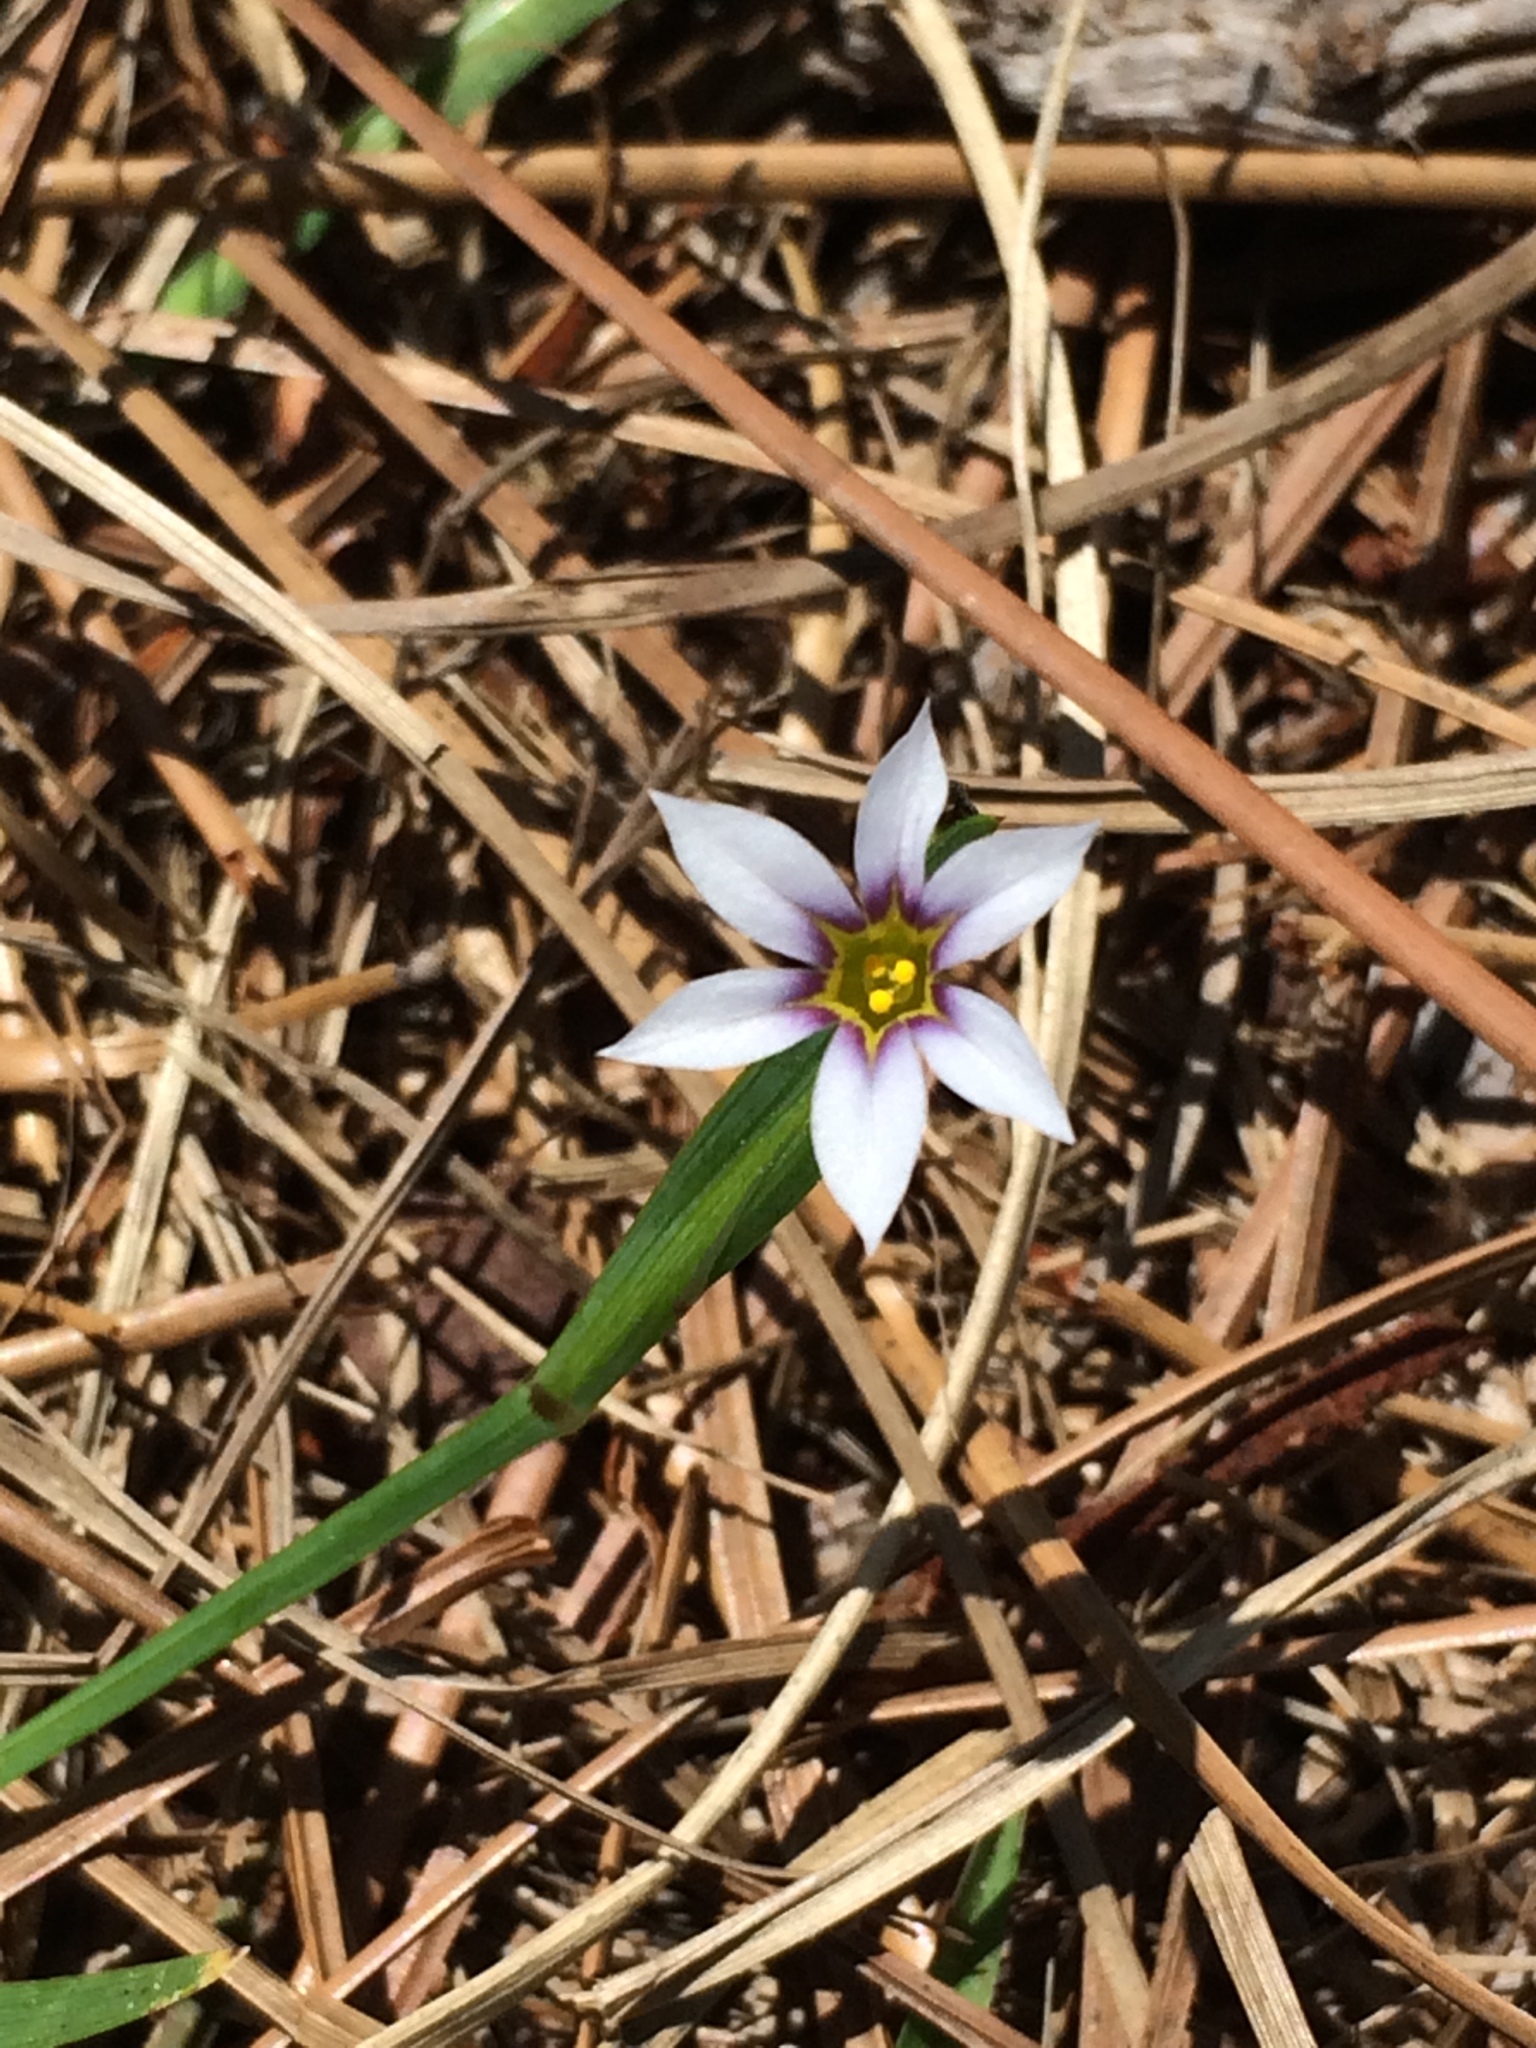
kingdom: Plantae
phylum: Tracheophyta
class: Liliopsida
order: Asparagales
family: Iridaceae
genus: Sisyrinchium
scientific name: Sisyrinchium micranthum
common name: Bermuda pigroot
